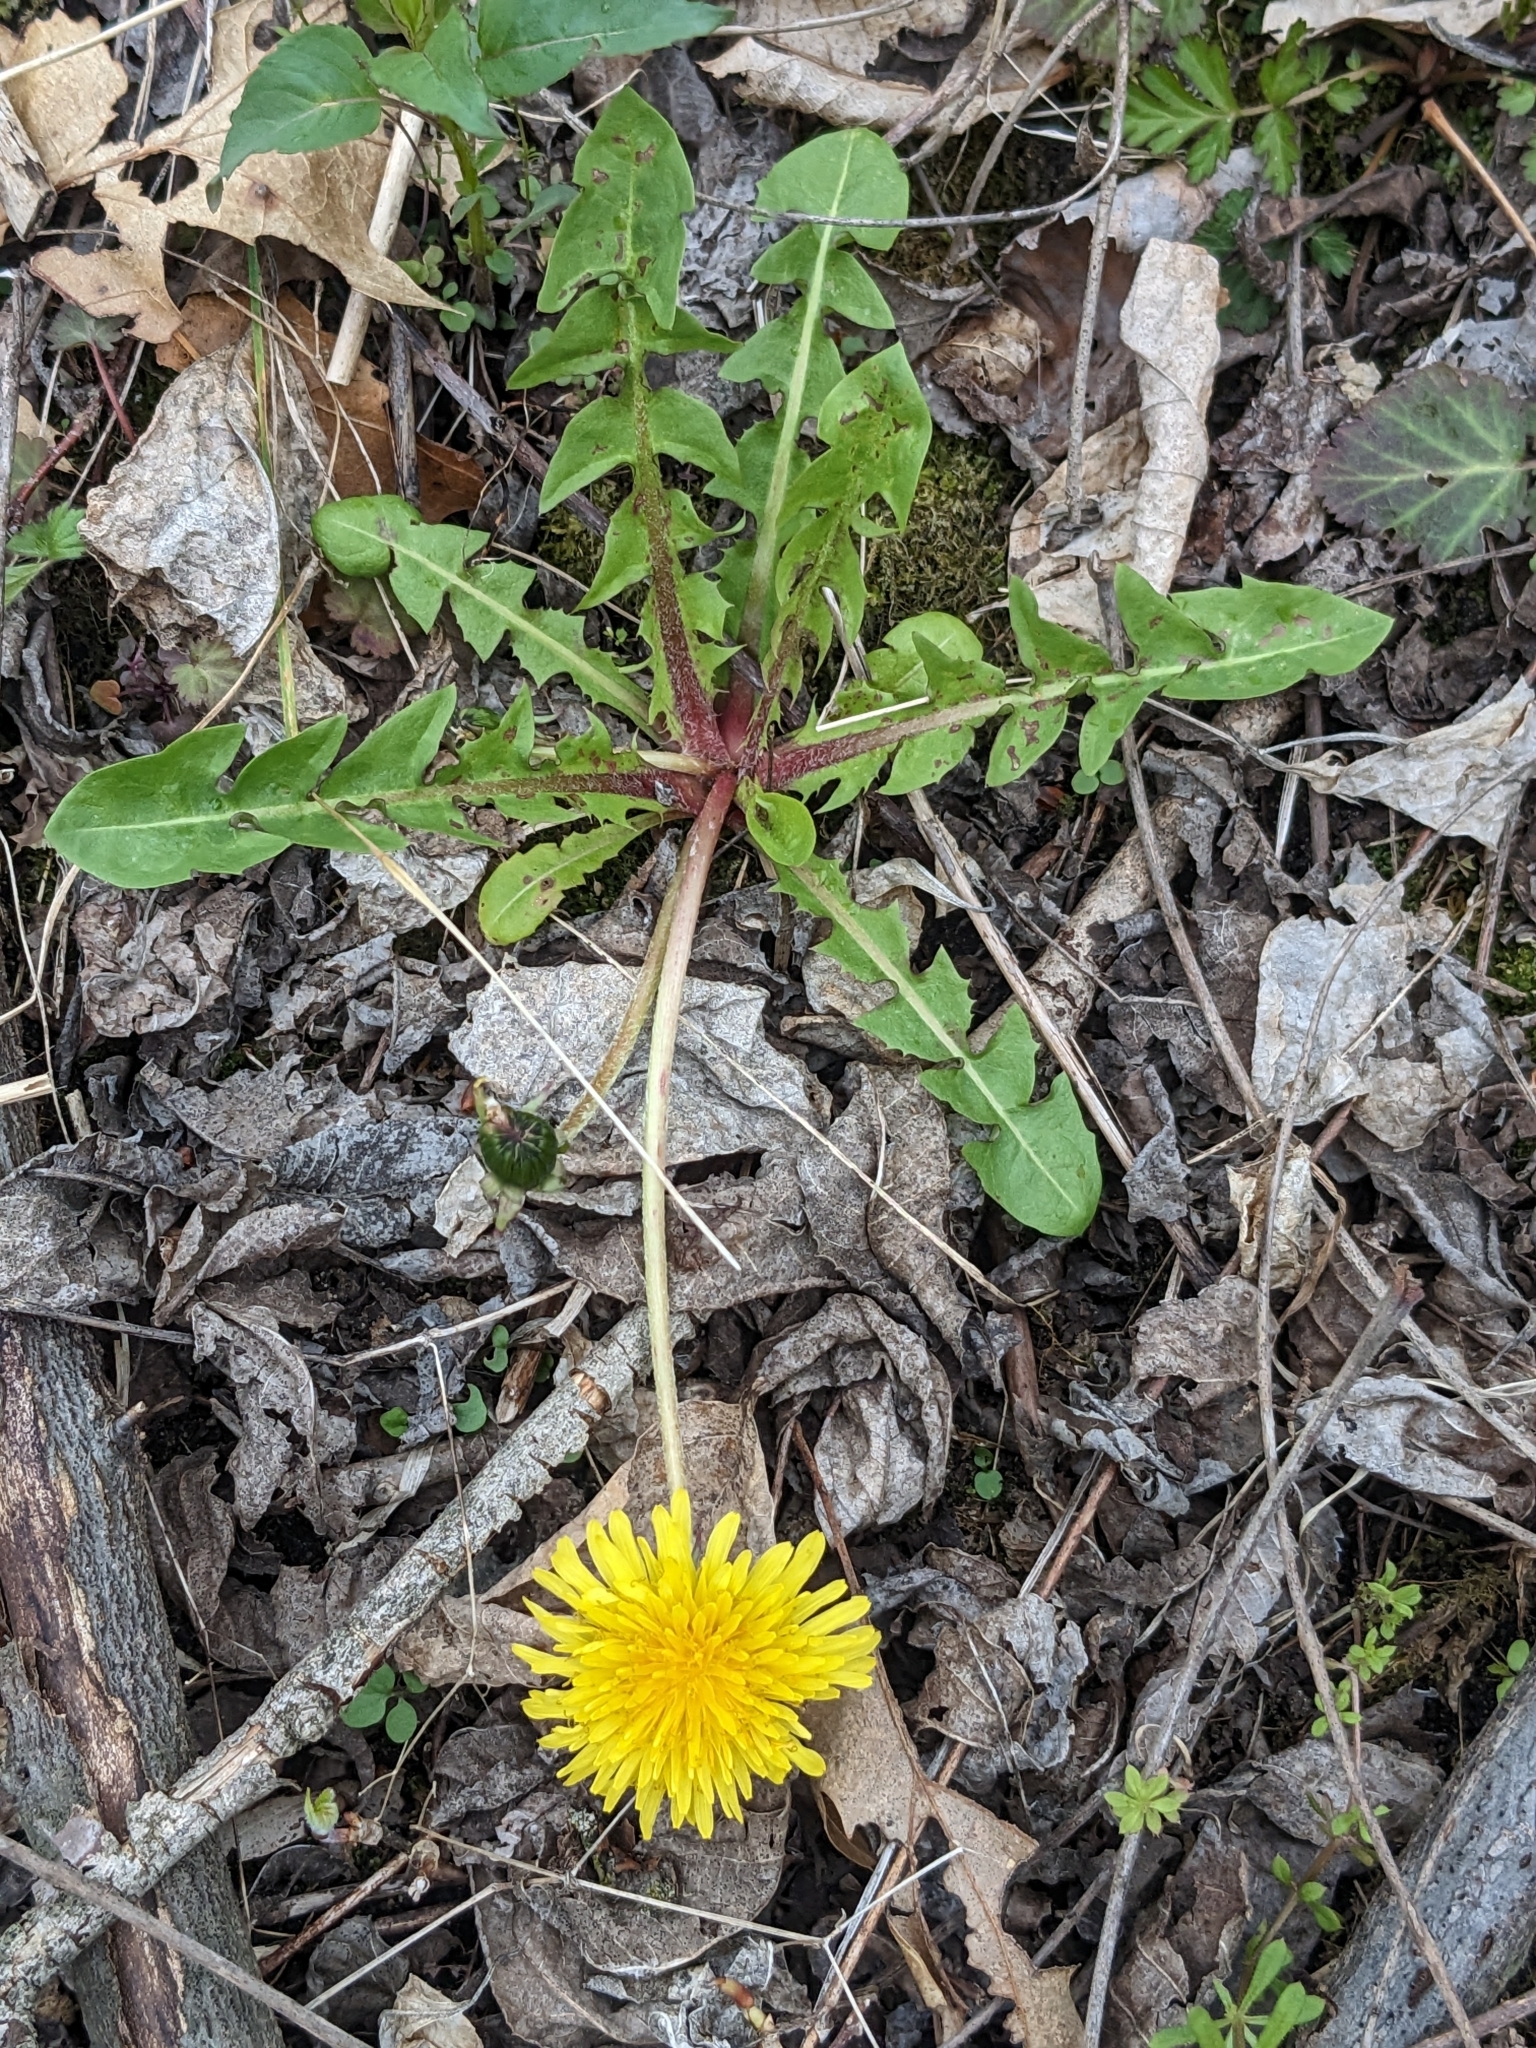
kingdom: Plantae
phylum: Tracheophyta
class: Magnoliopsida
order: Asterales
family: Asteraceae
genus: Taraxacum
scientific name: Taraxacum officinale
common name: Common dandelion
